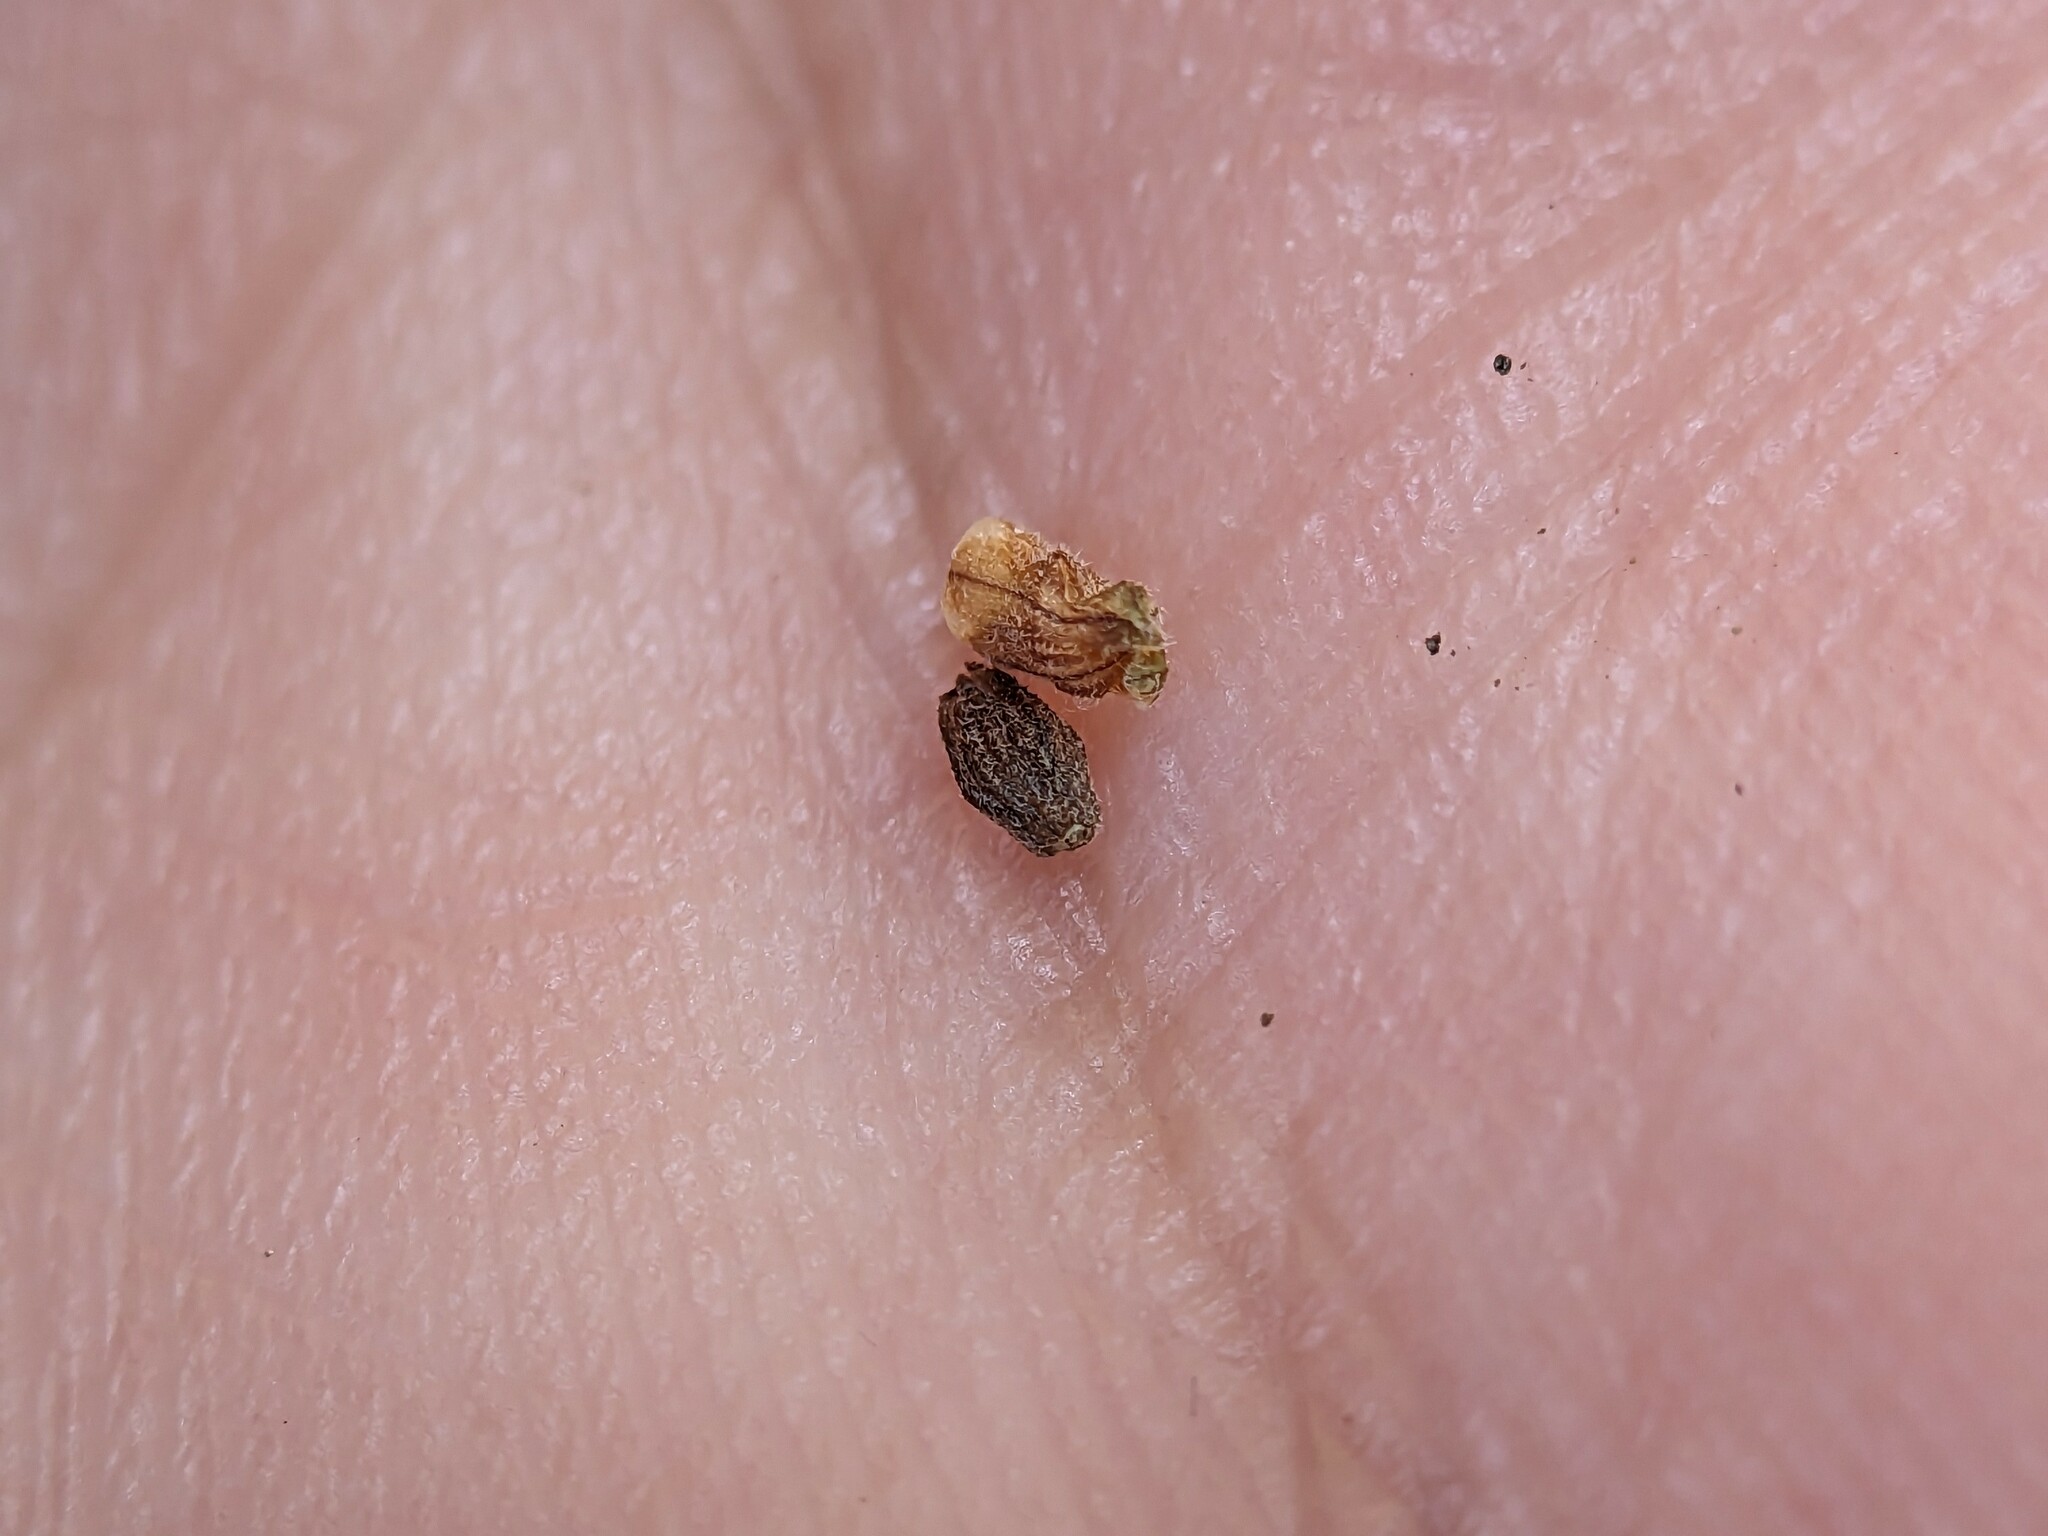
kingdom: Plantae
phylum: Tracheophyta
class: Magnoliopsida
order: Rosales
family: Urticaceae
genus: Parietaria
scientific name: Parietaria pensylvanica
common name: Pennsylvania pellitory
